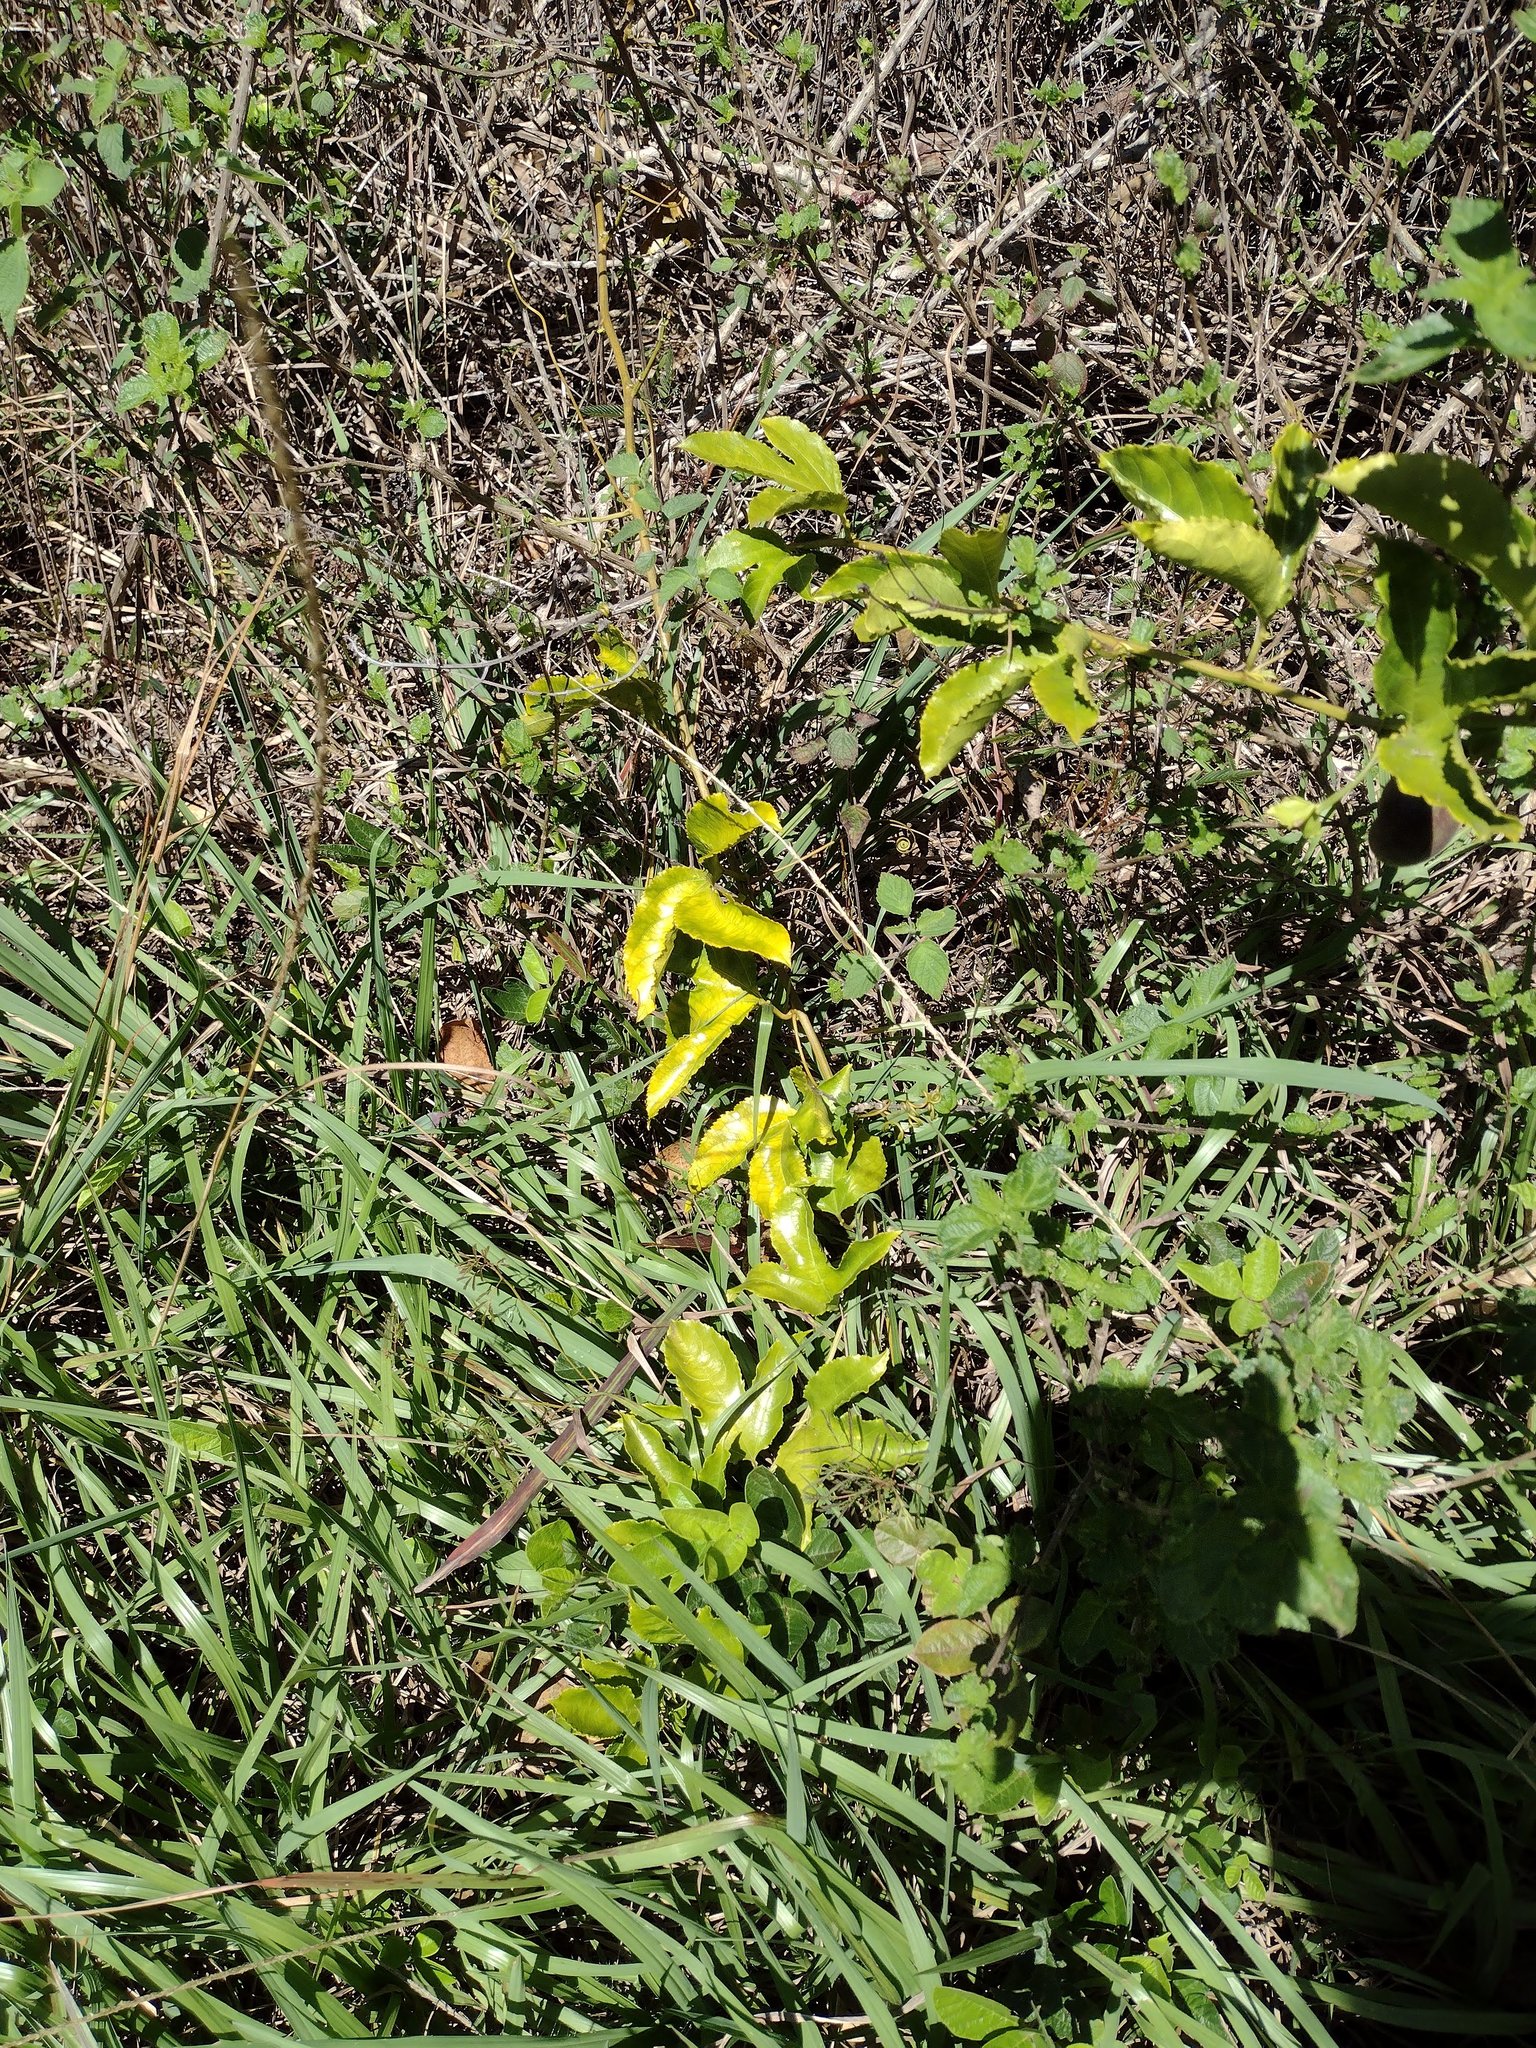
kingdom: Plantae
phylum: Tracheophyta
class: Magnoliopsida
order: Malpighiales
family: Passifloraceae
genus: Passiflora
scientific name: Passiflora edulis
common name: Purple granadilla
